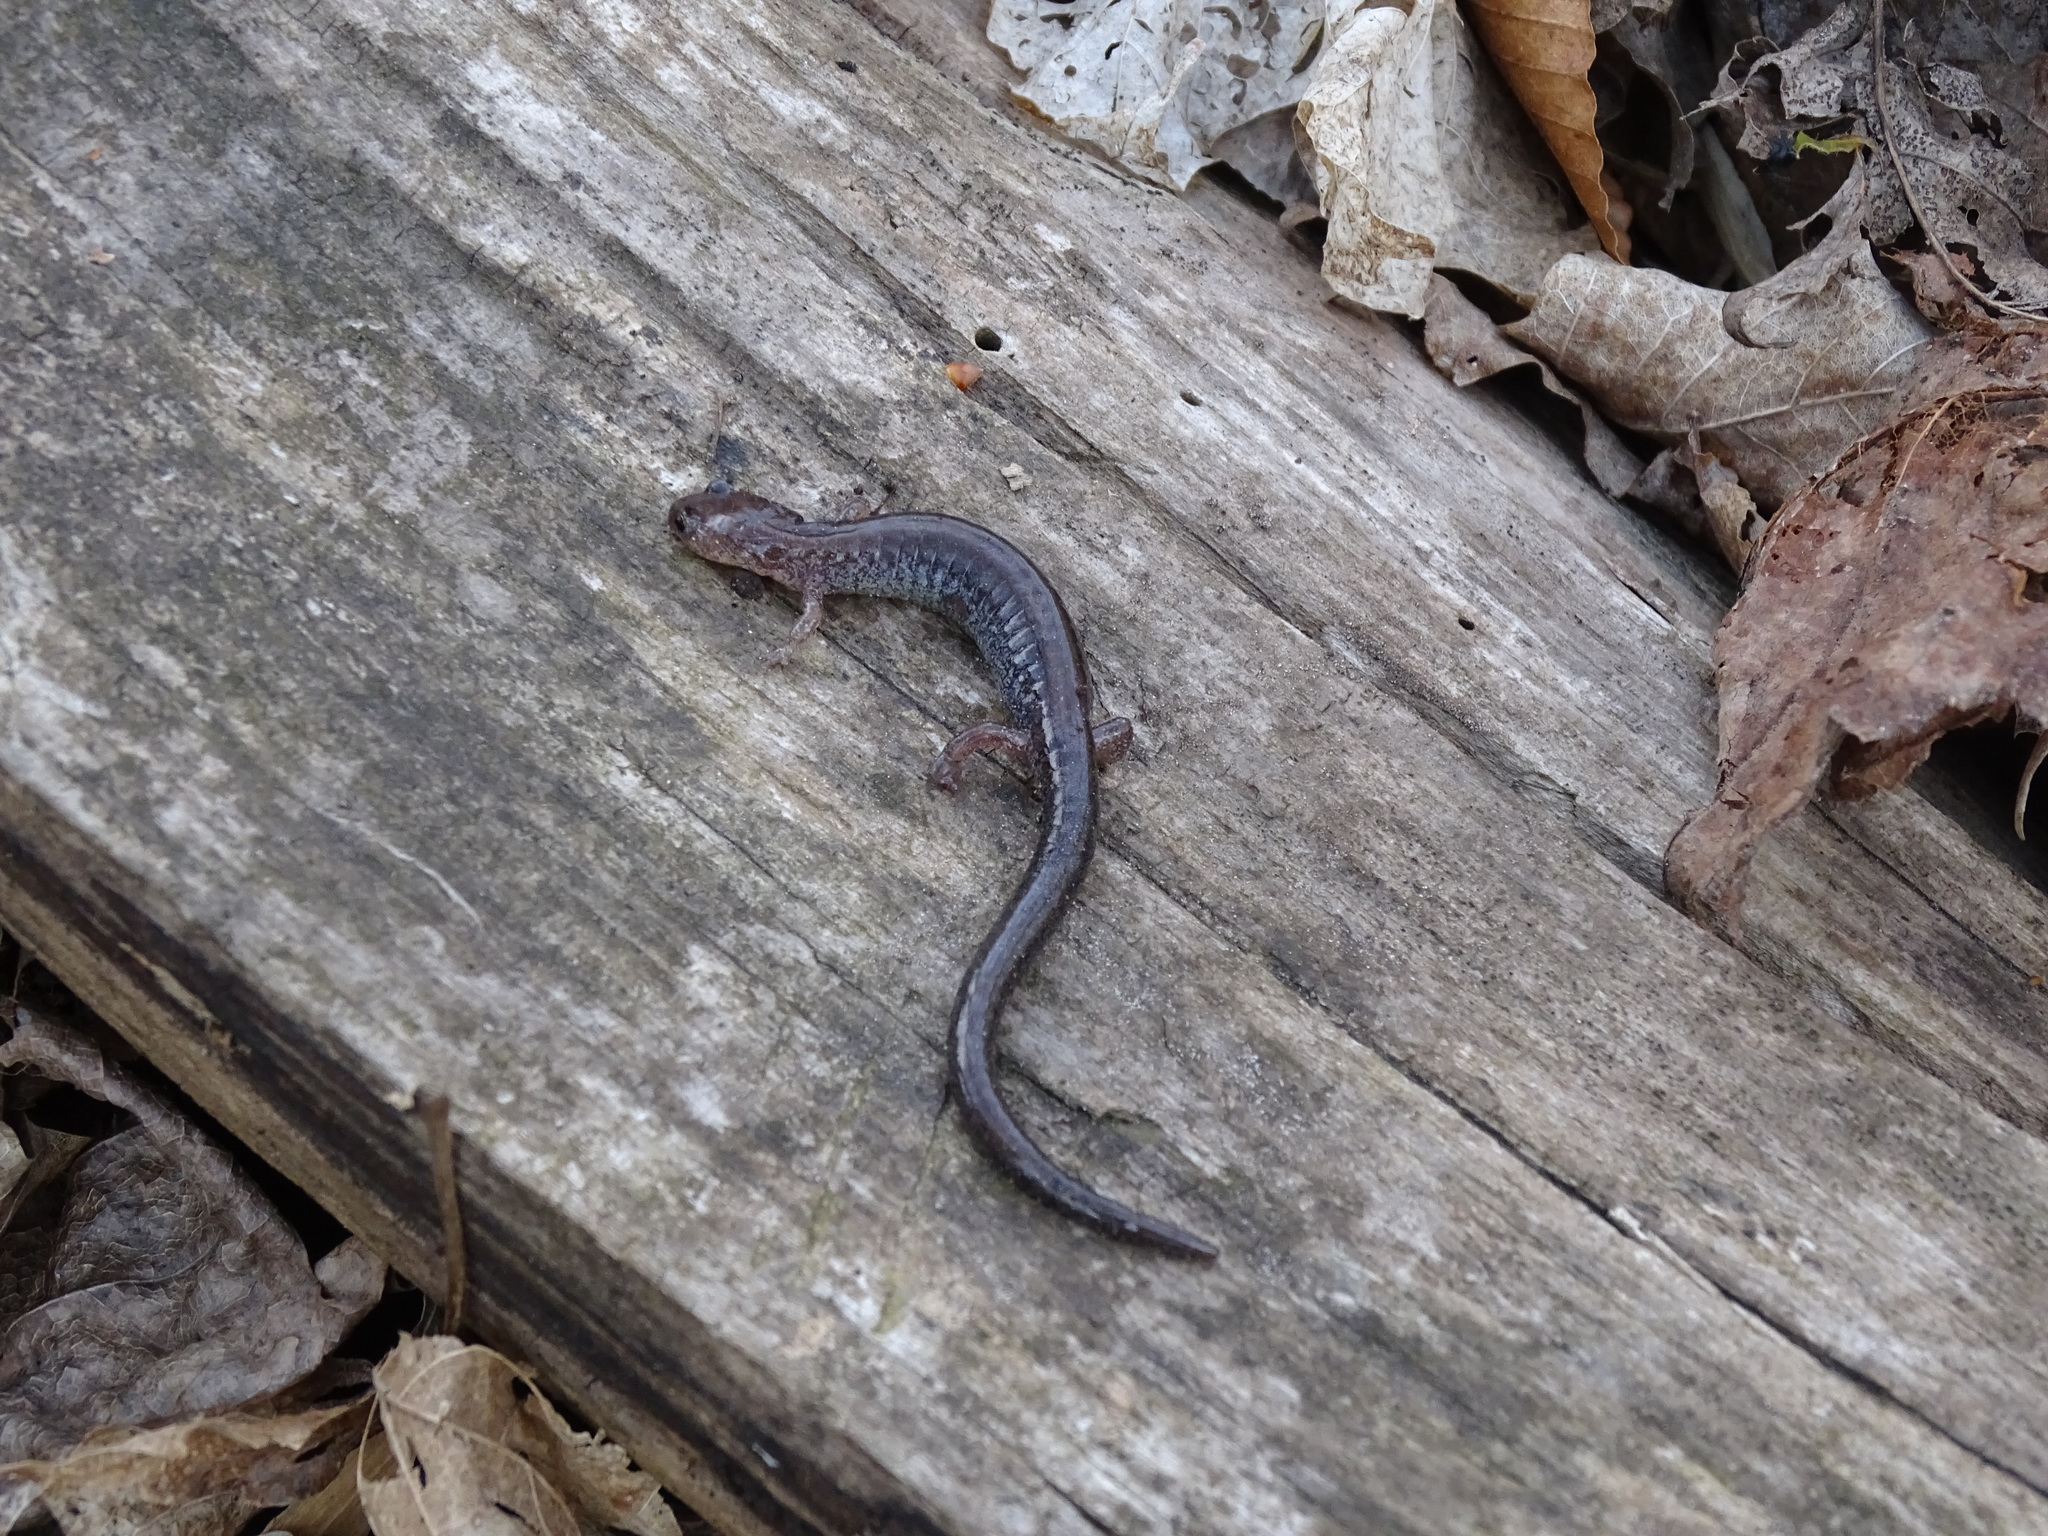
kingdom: Animalia
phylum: Chordata
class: Amphibia
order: Caudata
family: Plethodontidae
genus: Plethodon
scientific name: Plethodon cinereus
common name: Redback salamander
